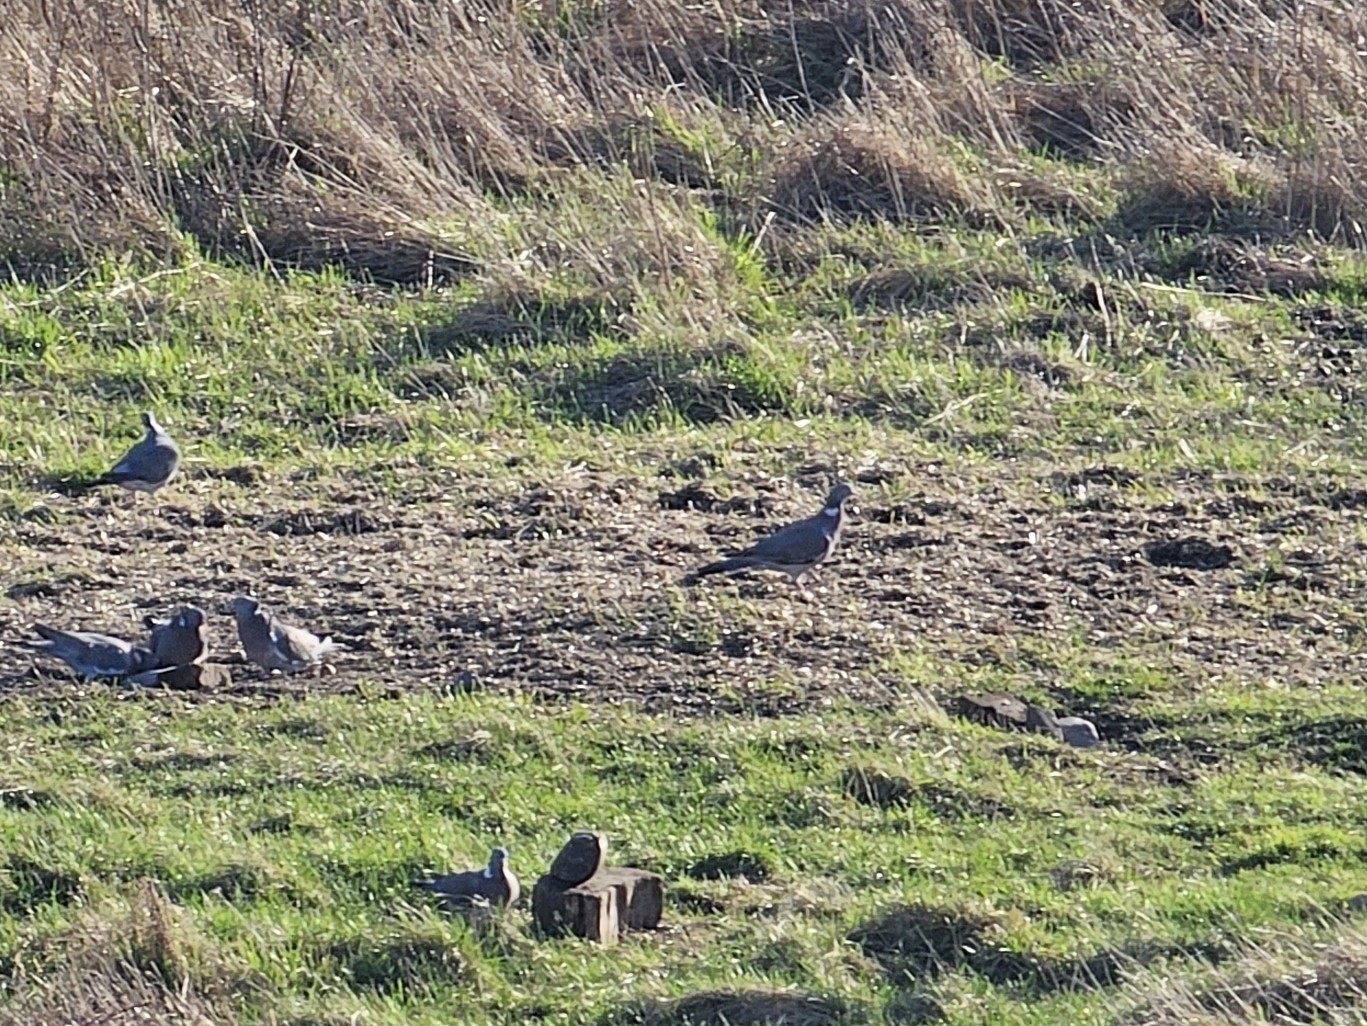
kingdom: Animalia
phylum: Chordata
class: Aves
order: Columbiformes
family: Columbidae
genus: Columba
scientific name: Columba palumbus
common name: Common wood pigeon
